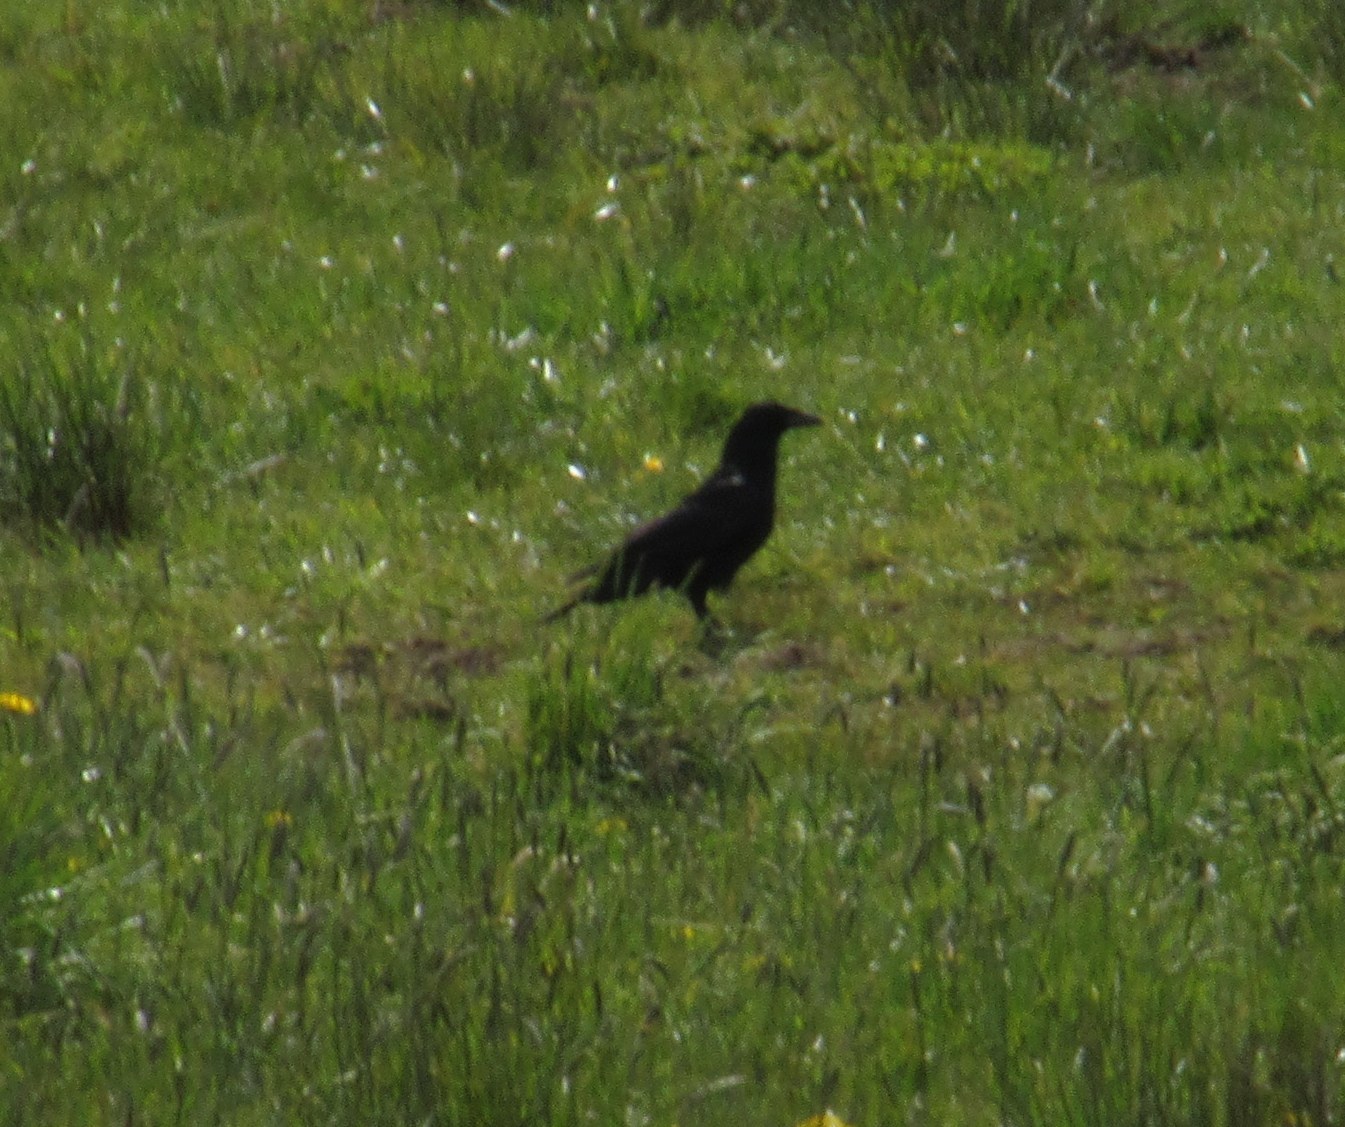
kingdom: Animalia
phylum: Chordata
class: Aves
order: Passeriformes
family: Corvidae
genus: Corvus
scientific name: Corvus corone
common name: Carrion crow
